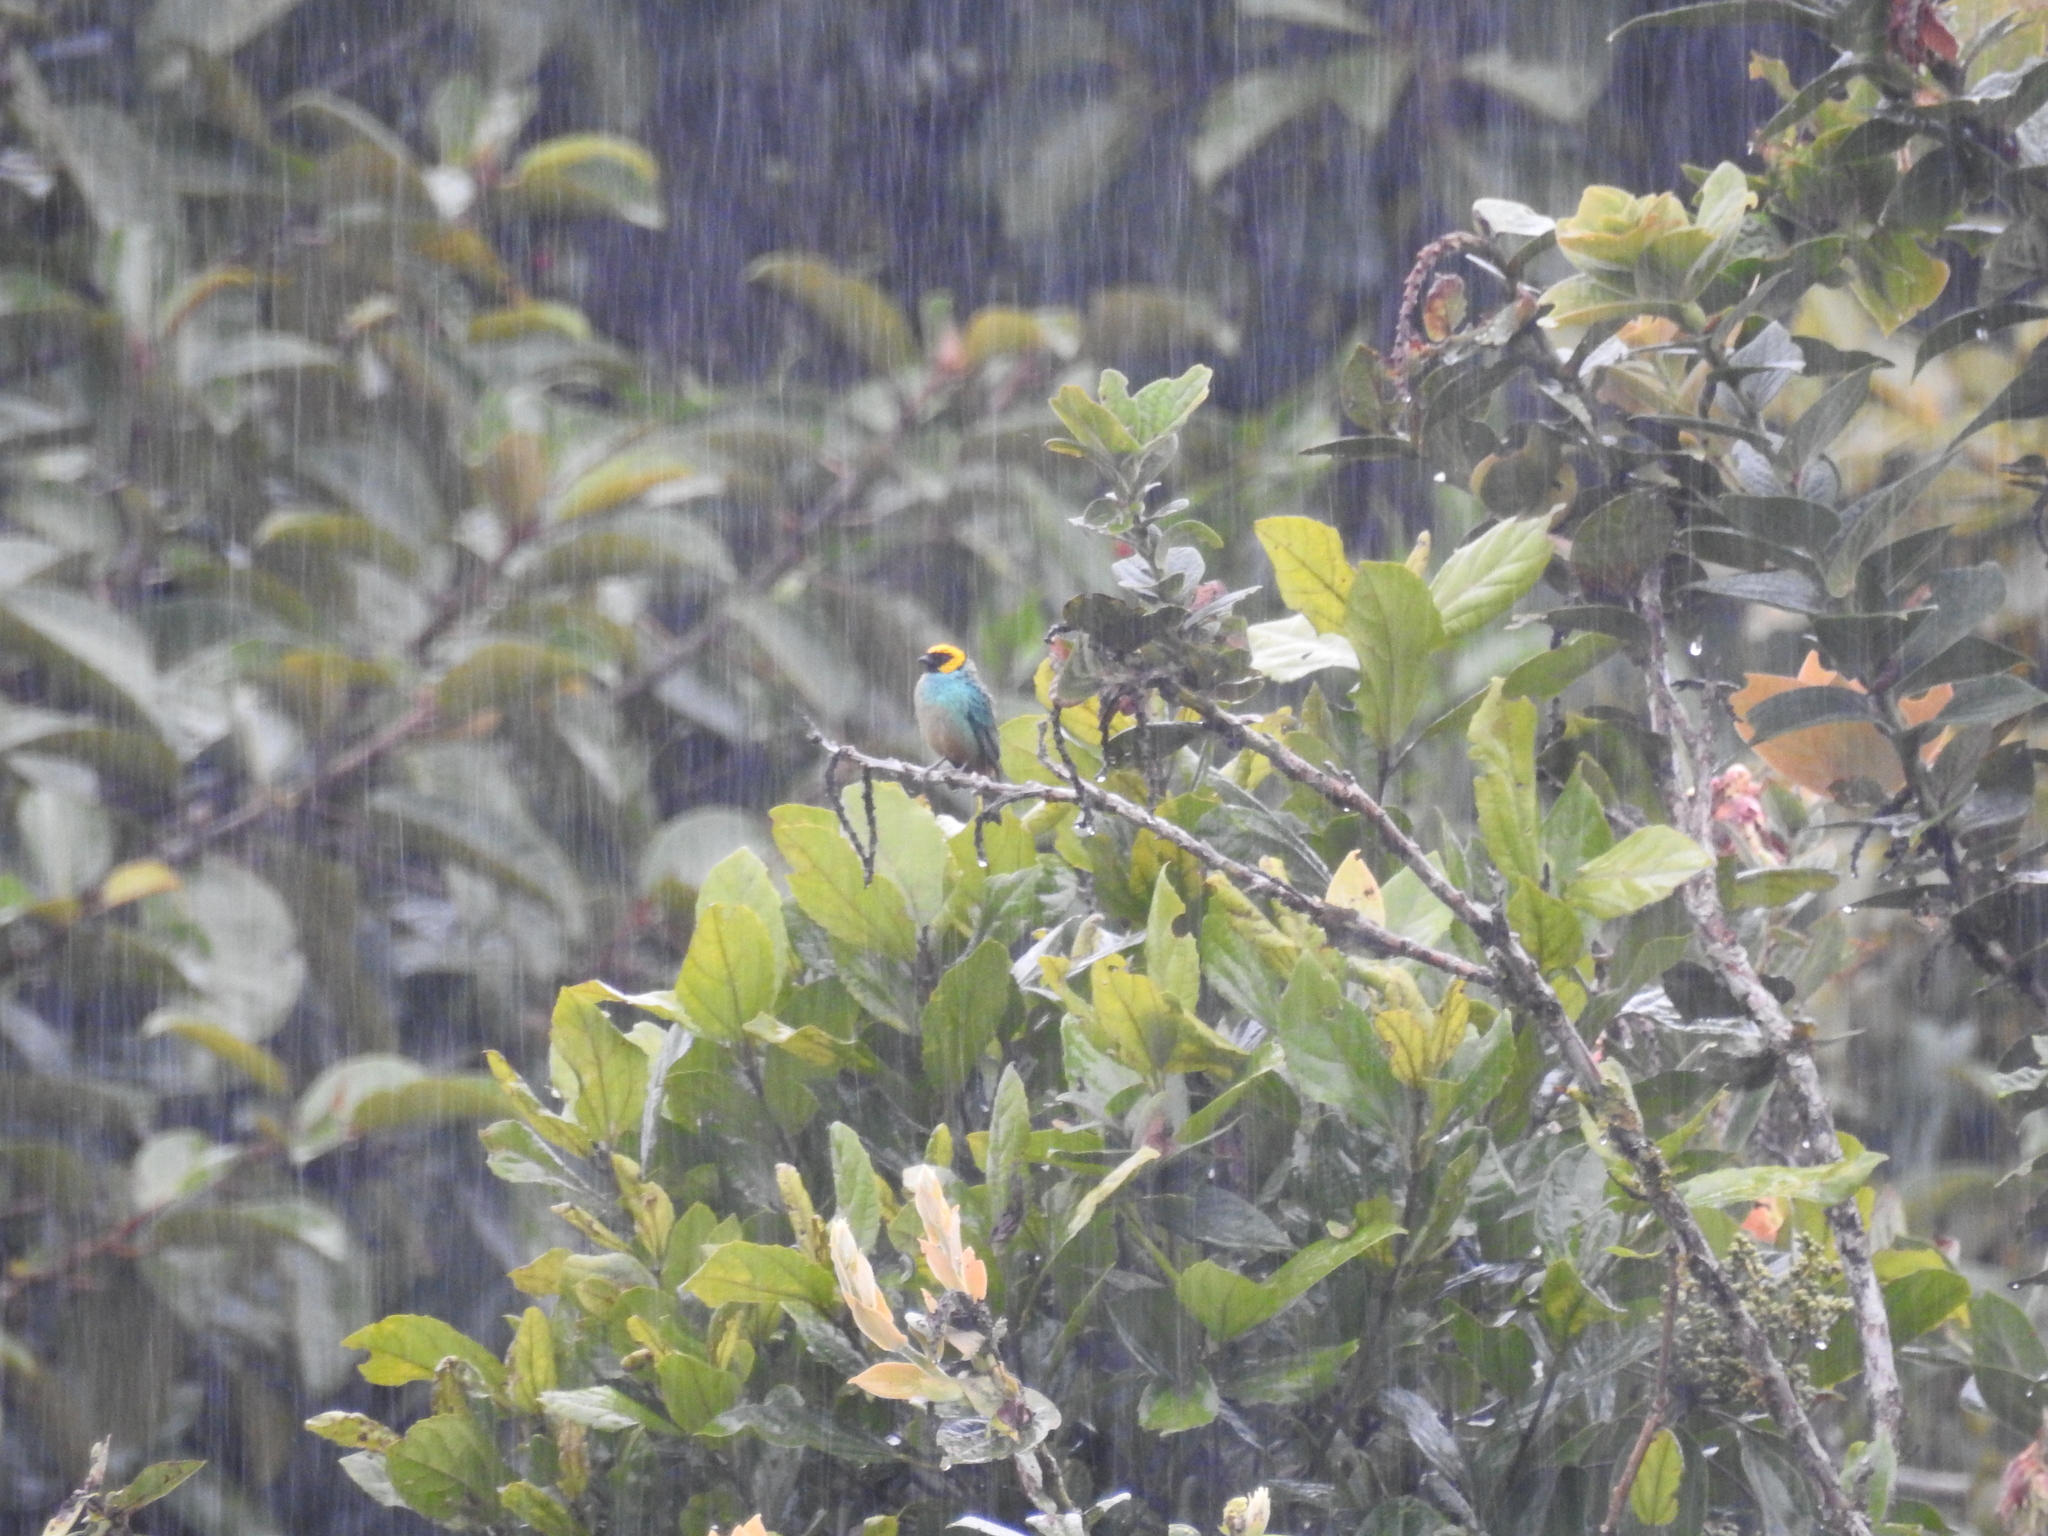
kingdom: Animalia
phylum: Chordata
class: Aves
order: Passeriformes
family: Thraupidae
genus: Tangara
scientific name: Tangara xanthocephala
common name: Saffron-crowned tanager
